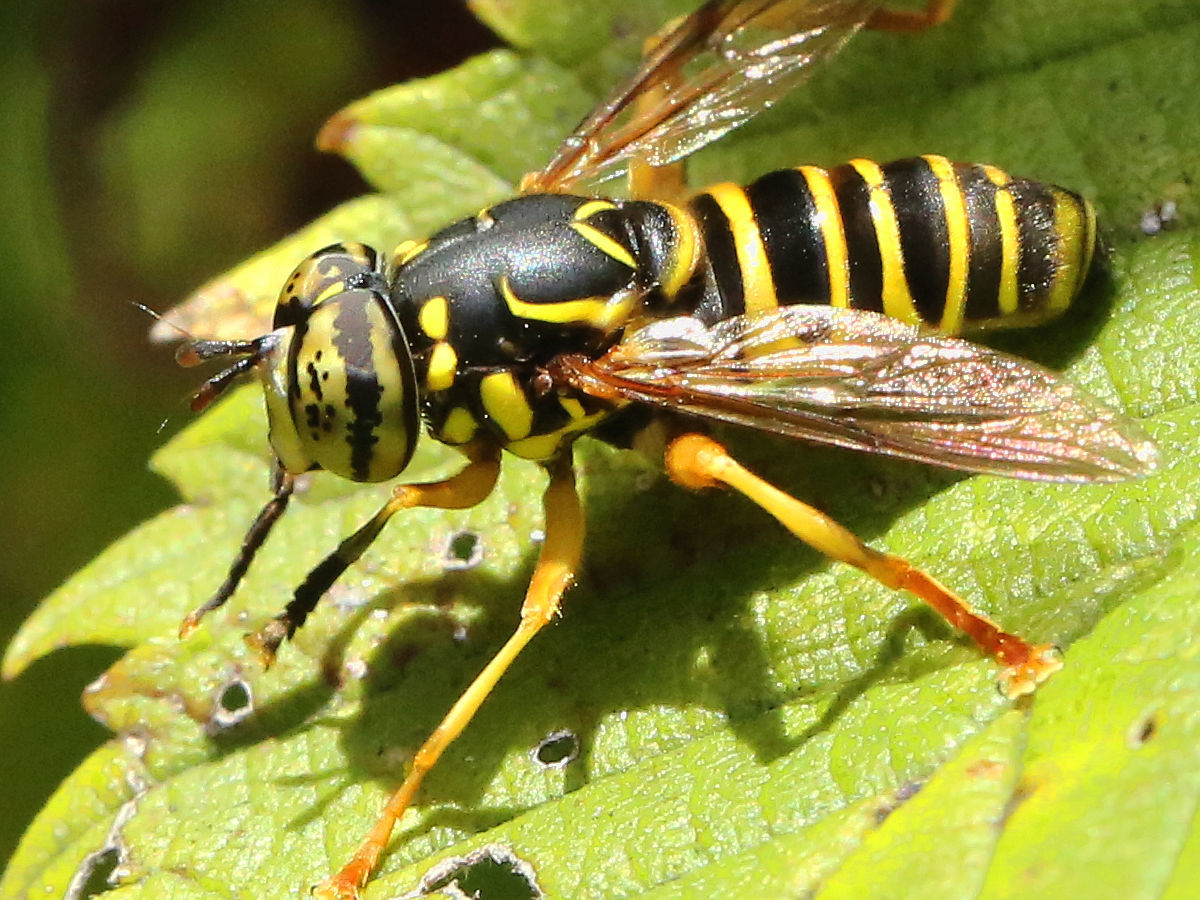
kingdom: Animalia
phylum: Arthropoda
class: Insecta
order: Diptera
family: Syrphidae
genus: Spilomyia
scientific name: Spilomyia longicornis
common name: Eastern hornet fly
